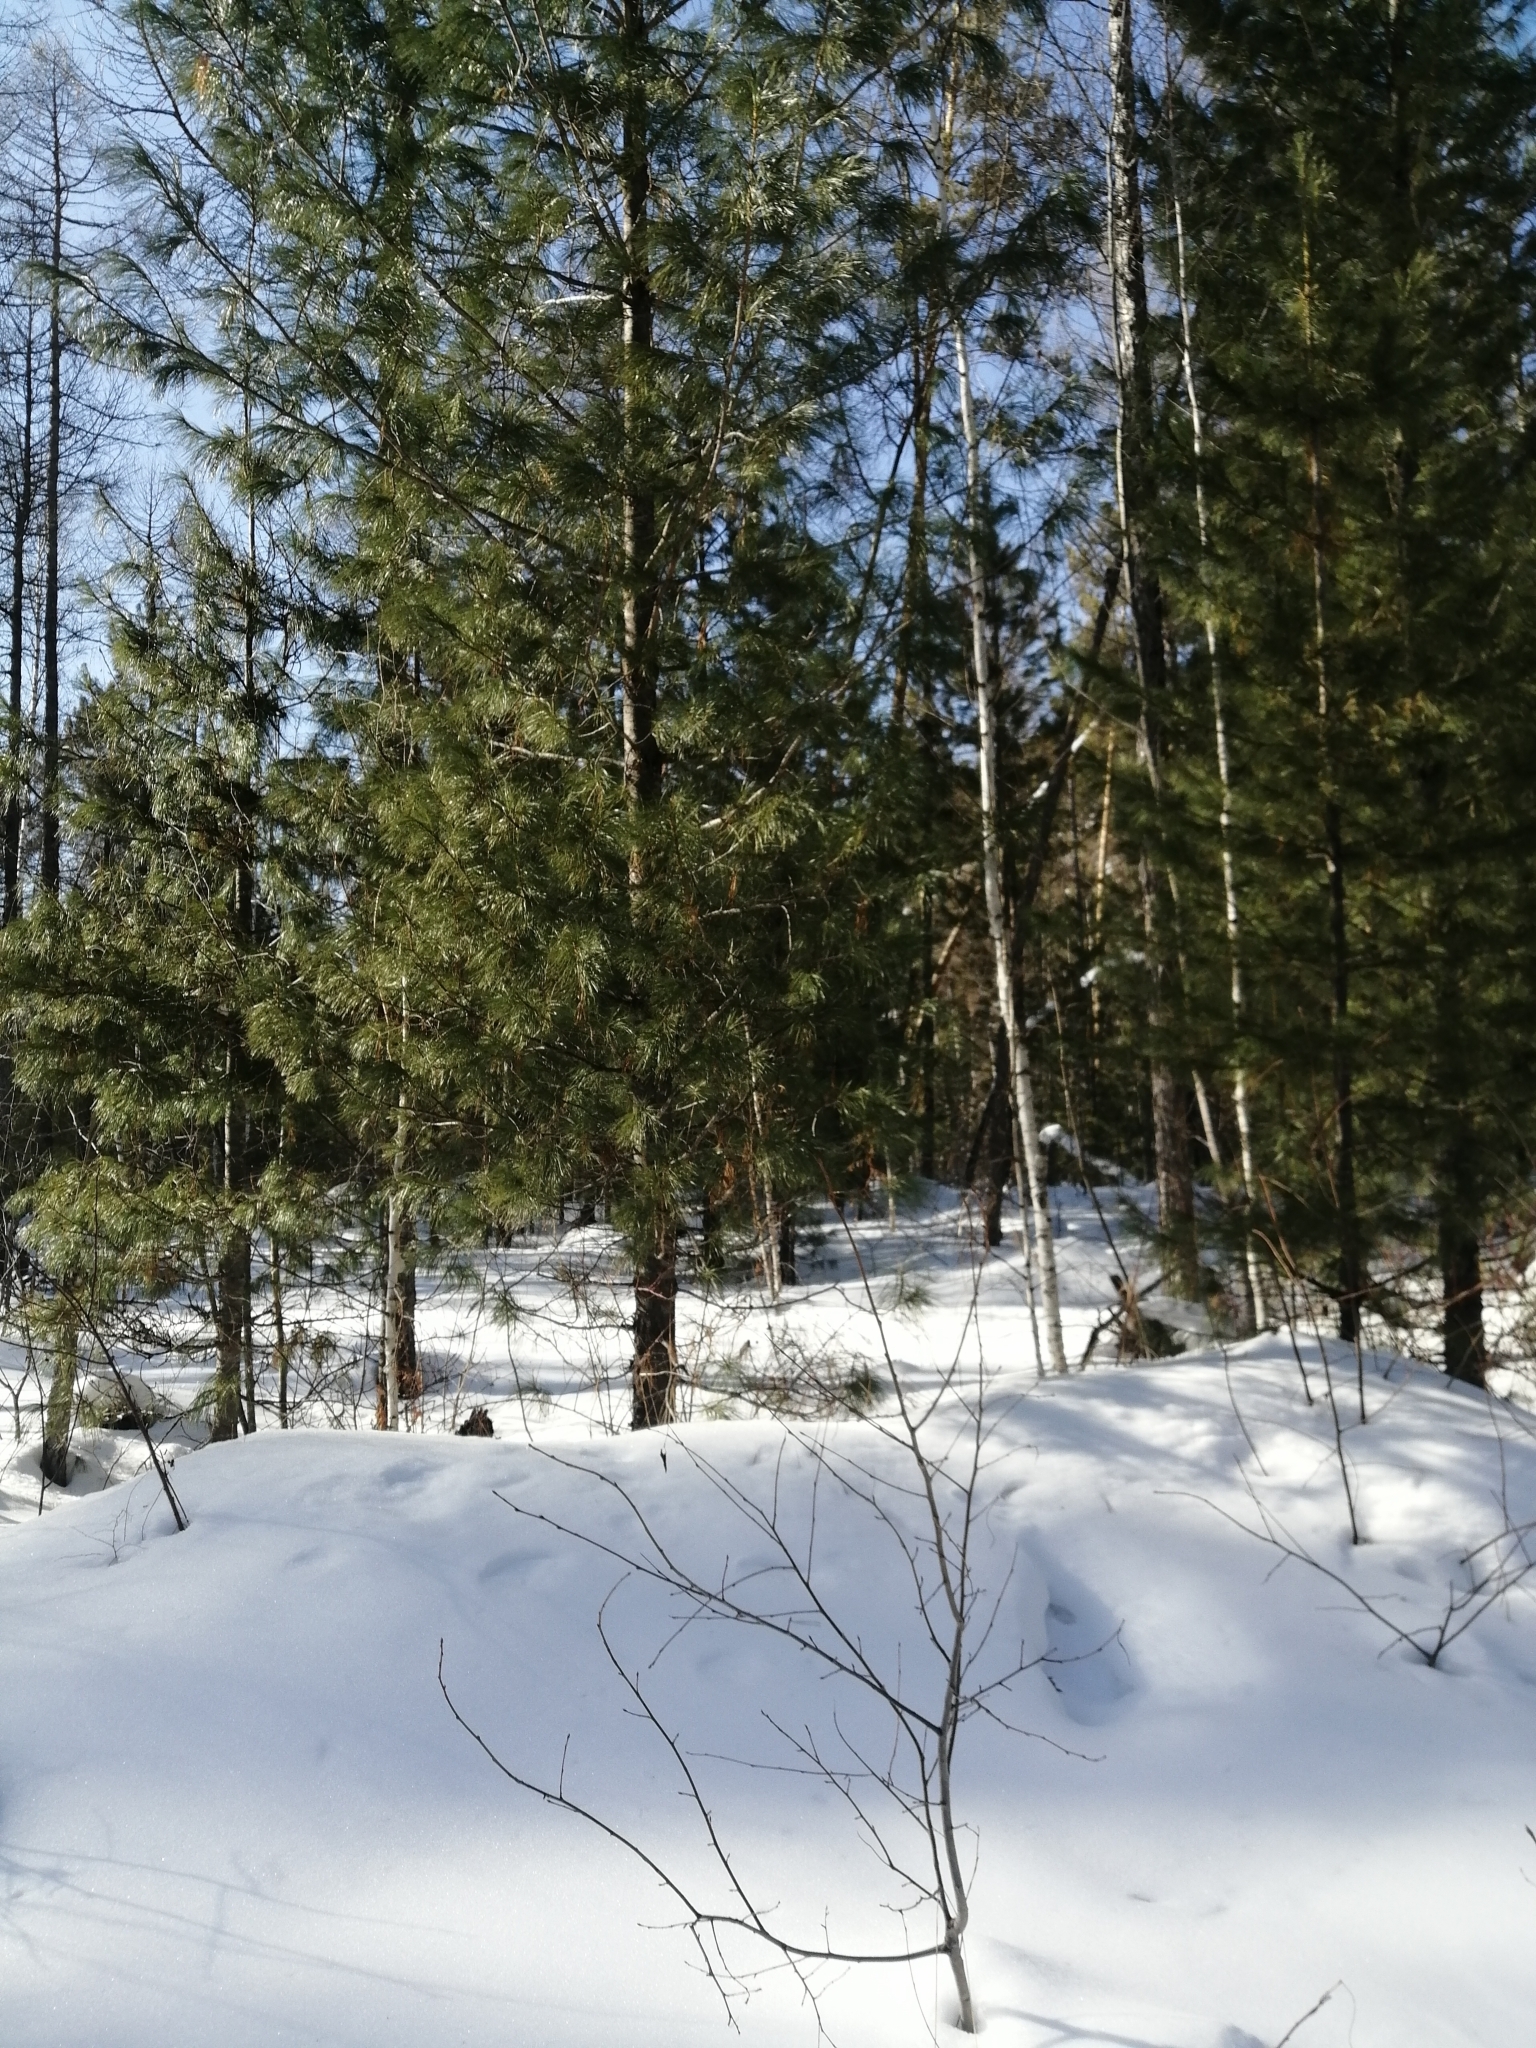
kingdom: Plantae
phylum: Tracheophyta
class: Pinopsida
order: Pinales
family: Pinaceae
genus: Pinus
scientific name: Pinus sibirica
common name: Siberian pine
